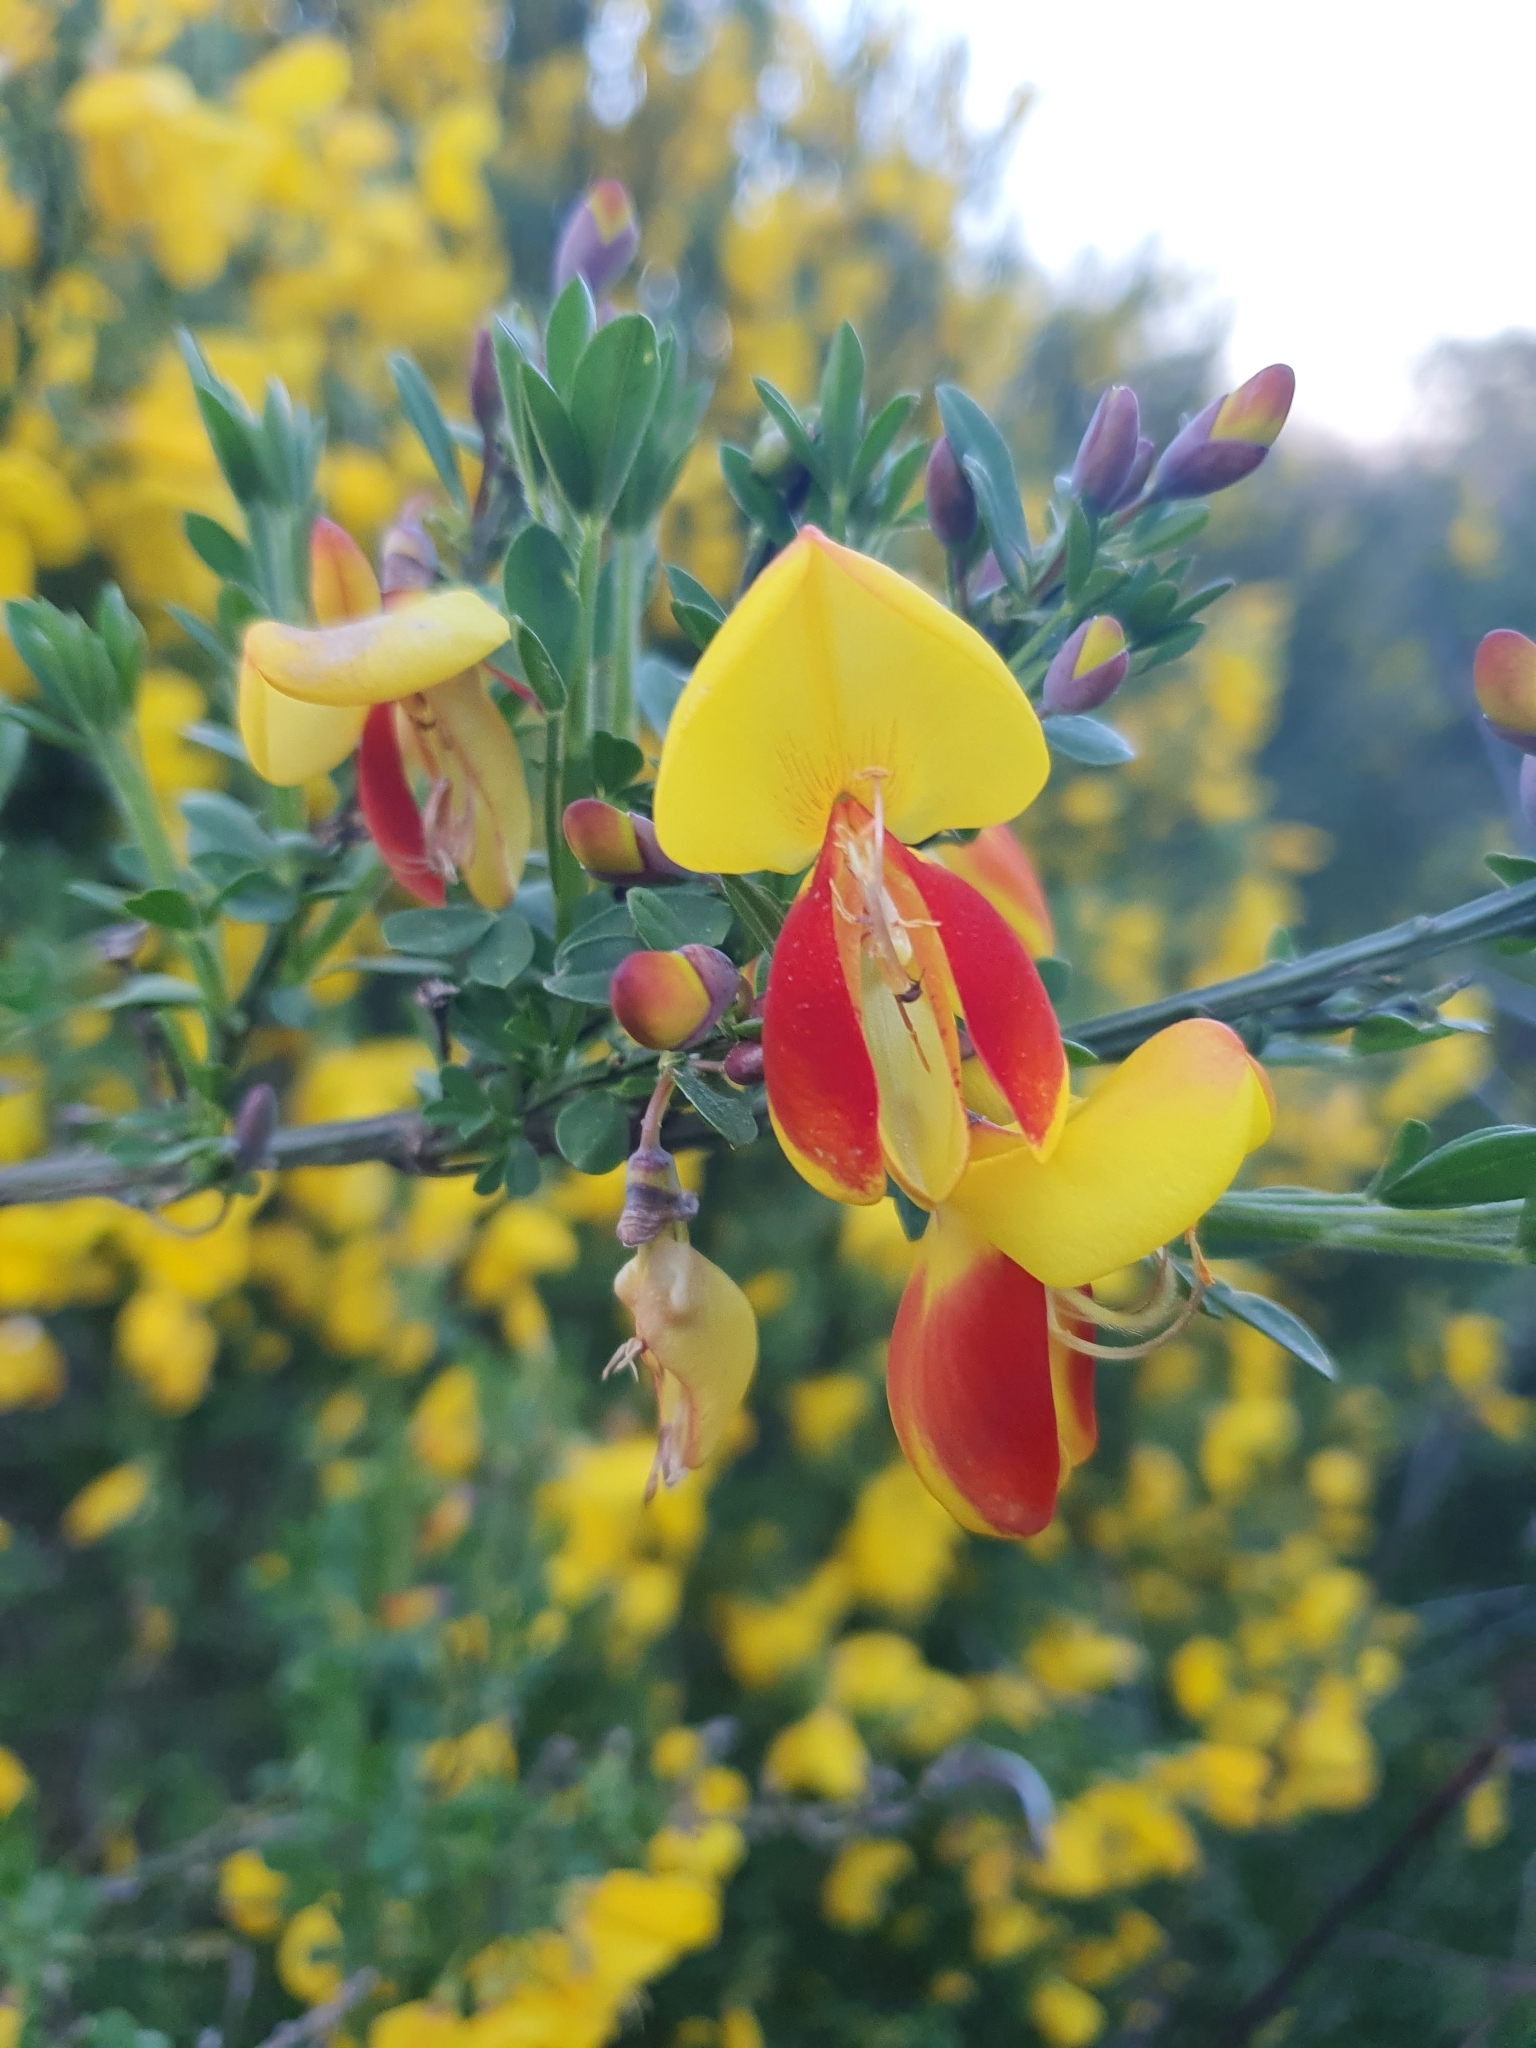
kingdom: Plantae
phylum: Tracheophyta
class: Magnoliopsida
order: Fabales
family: Fabaceae
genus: Cytisus
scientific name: Cytisus scoparius
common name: Scotch broom
